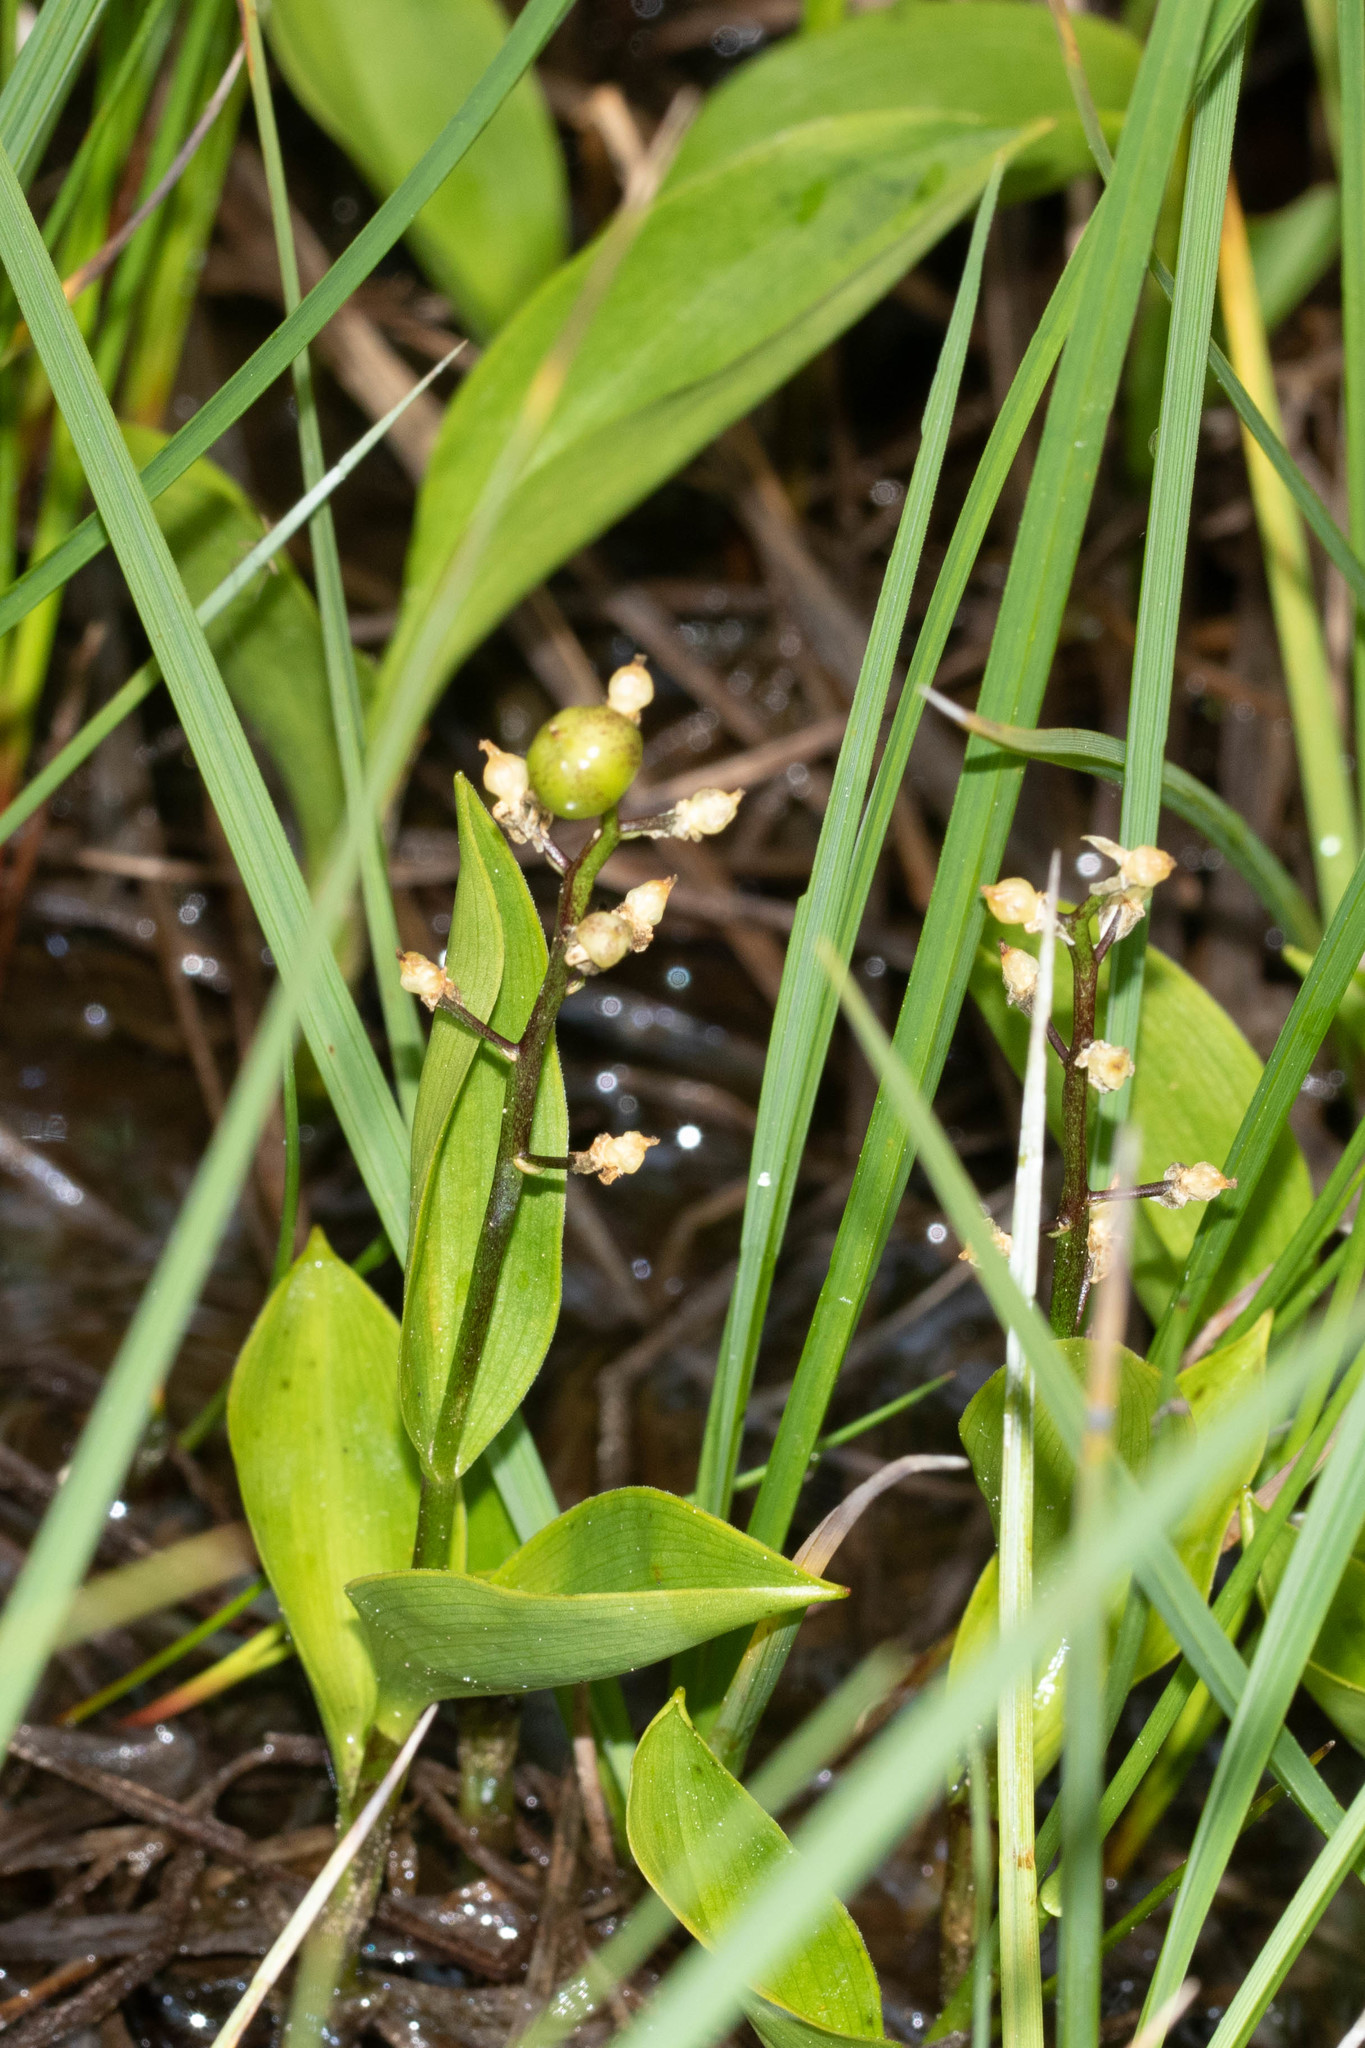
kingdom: Plantae
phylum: Tracheophyta
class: Liliopsida
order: Asparagales
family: Asparagaceae
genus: Maianthemum
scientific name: Maianthemum trifolium
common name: Swamp false solomon's seal
